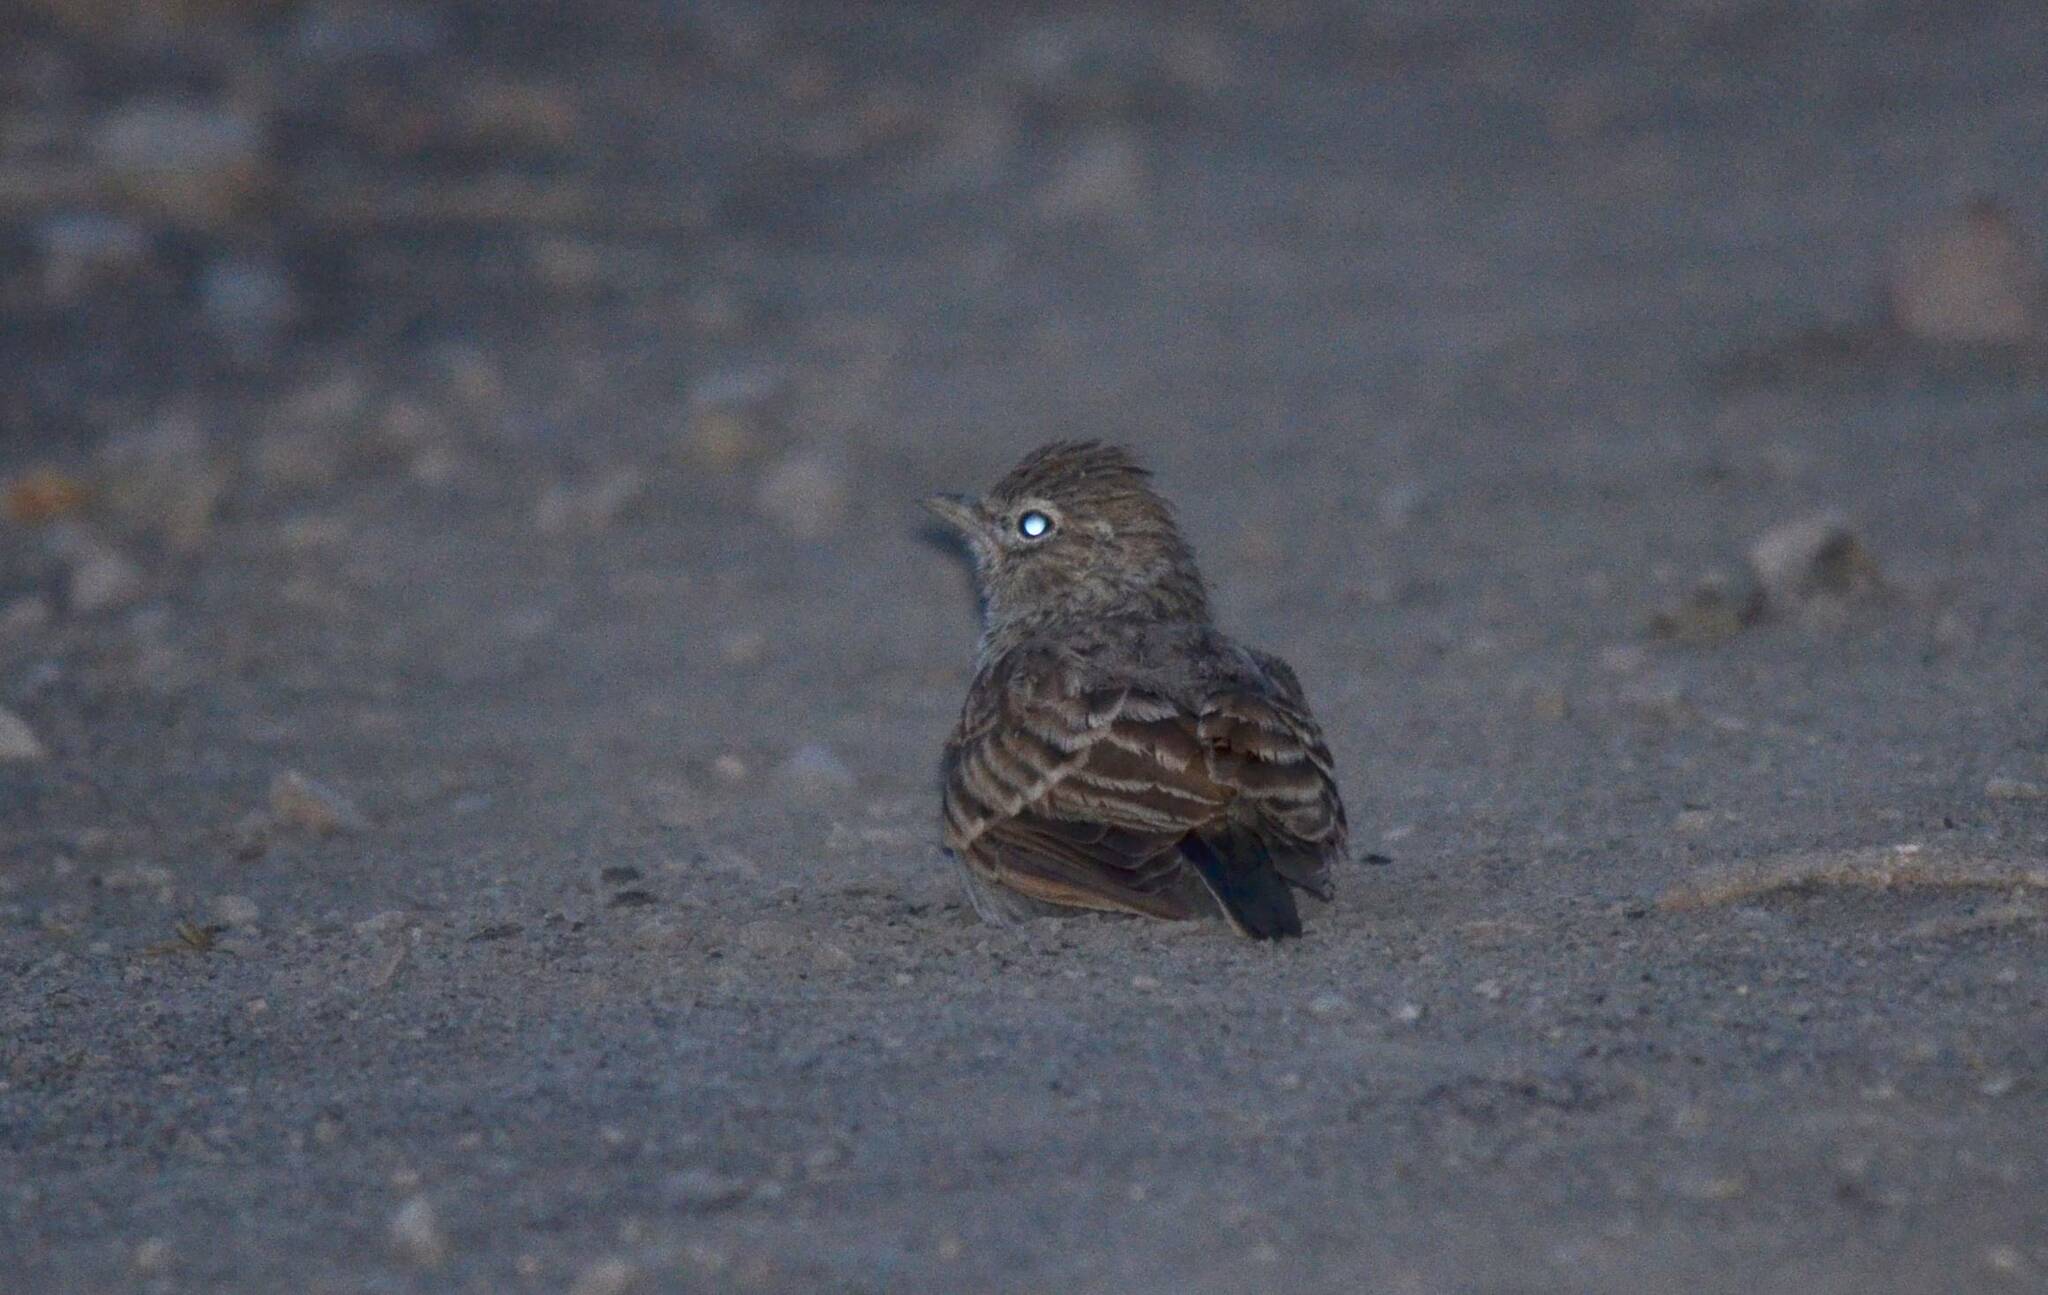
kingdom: Animalia
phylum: Chordata
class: Aves
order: Passeriformes
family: Alaudidae
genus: Galerida
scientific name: Galerida theklae
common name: Thekla lark
